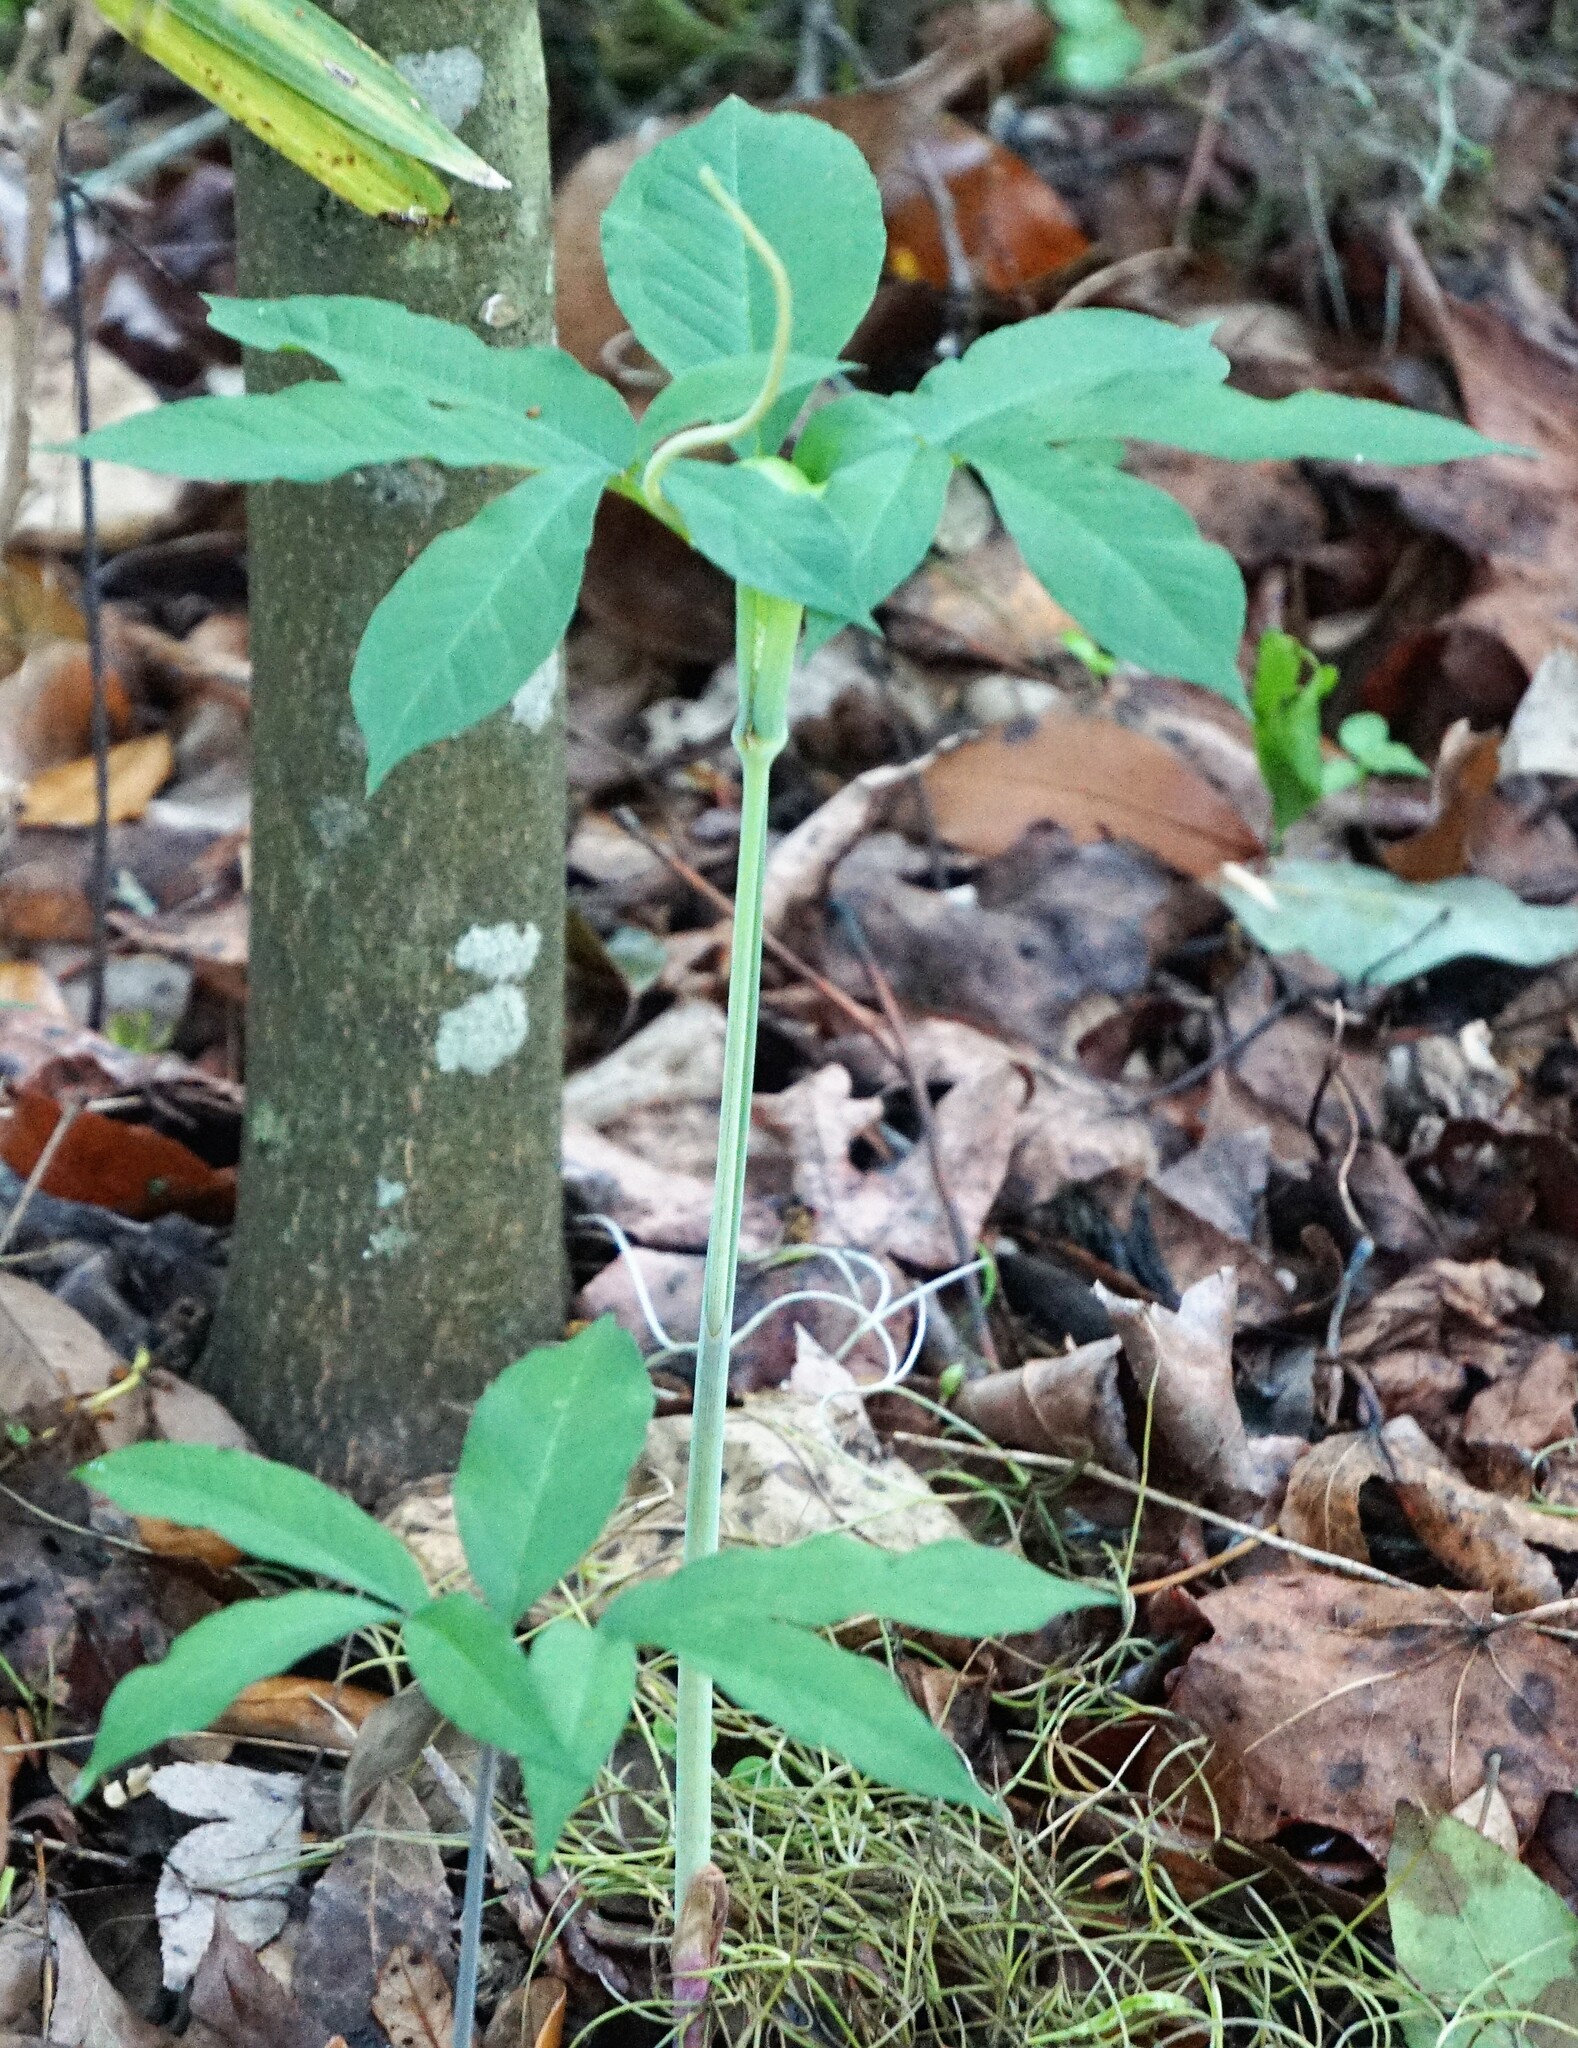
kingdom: Plantae
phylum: Tracheophyta
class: Liliopsida
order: Alismatales
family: Araceae
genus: Arisaema
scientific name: Arisaema dracontium
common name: Dragon-arum
